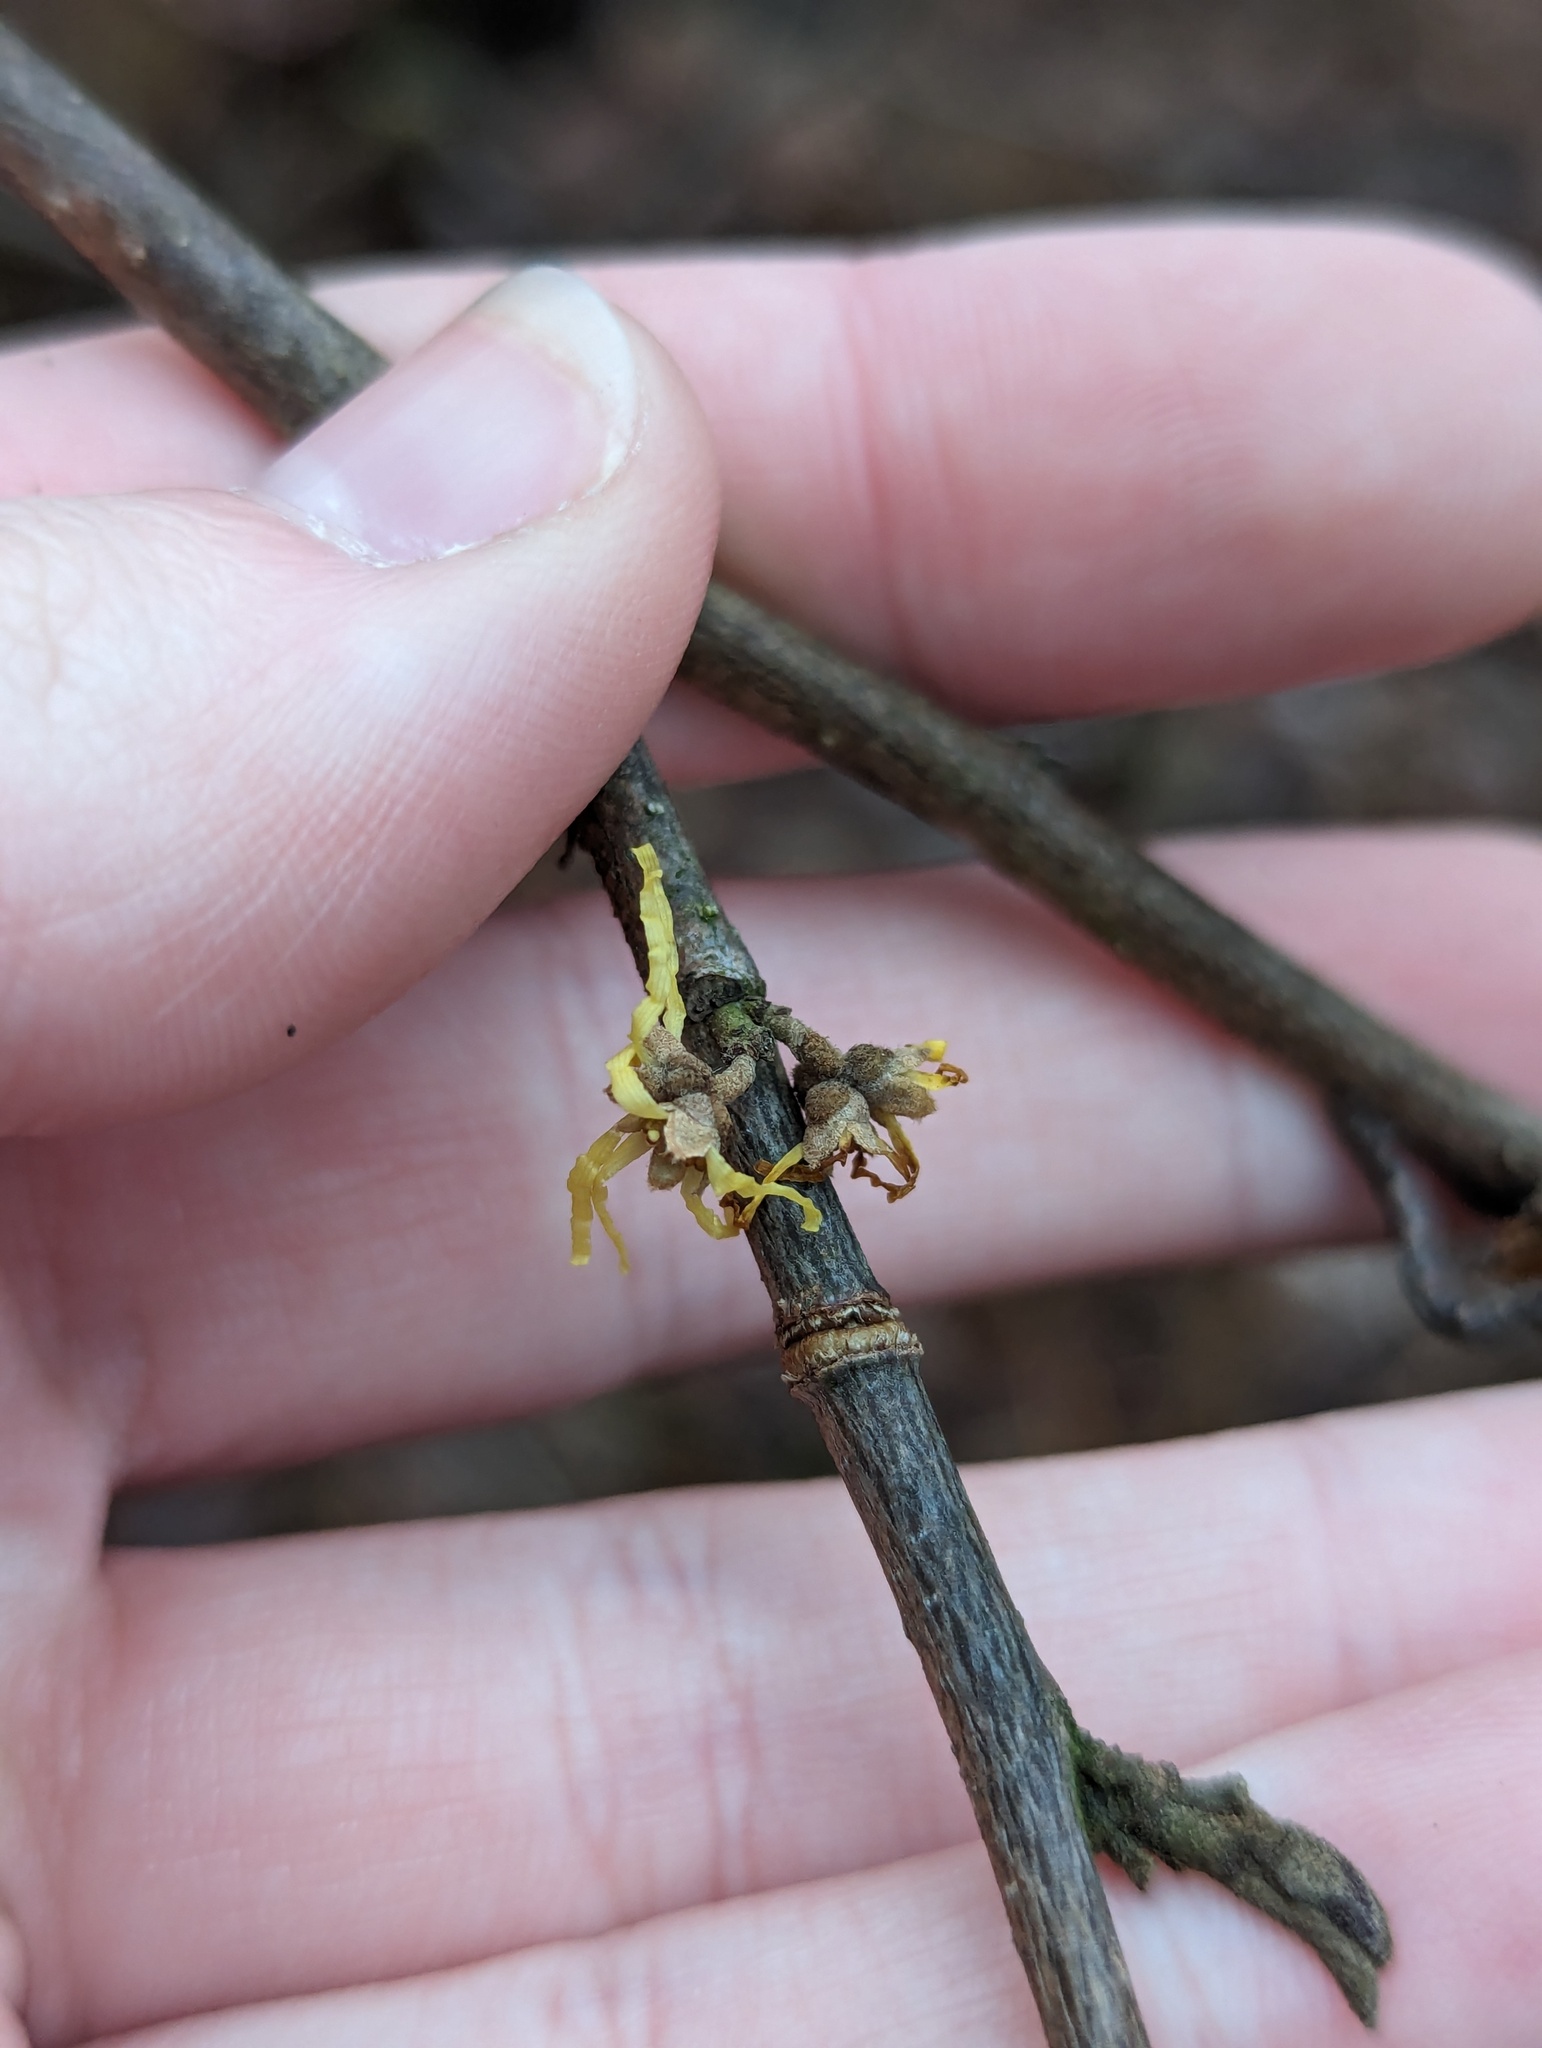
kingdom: Plantae
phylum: Tracheophyta
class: Magnoliopsida
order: Saxifragales
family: Hamamelidaceae
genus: Hamamelis
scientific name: Hamamelis virginiana
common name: Witch-hazel
